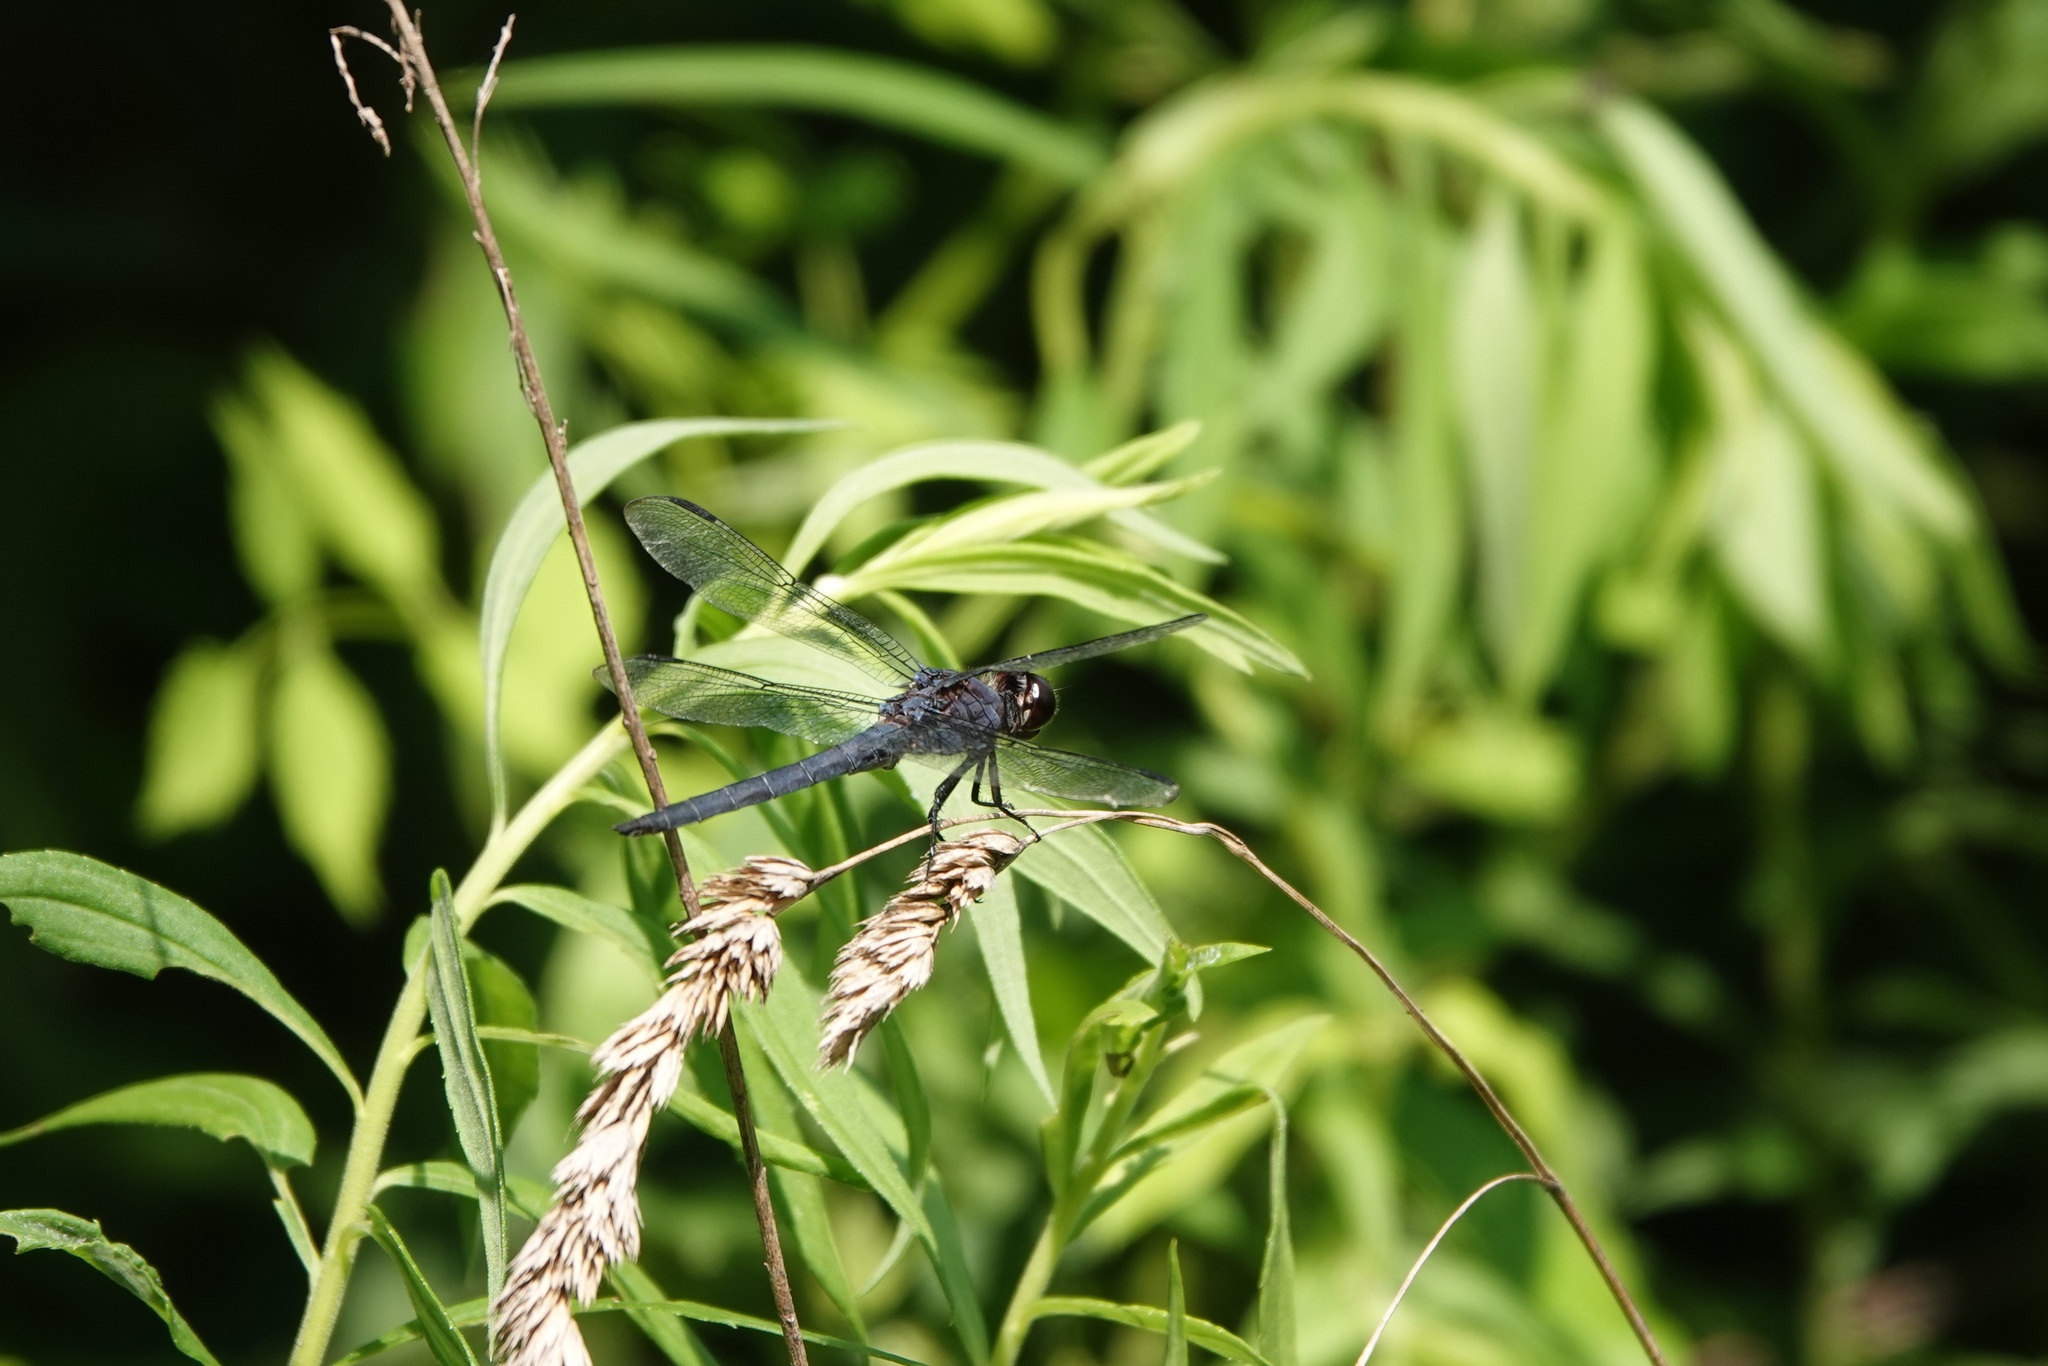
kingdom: Animalia
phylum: Arthropoda
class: Insecta
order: Odonata
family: Libellulidae
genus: Libellula
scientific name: Libellula incesta
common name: Slaty skimmer
